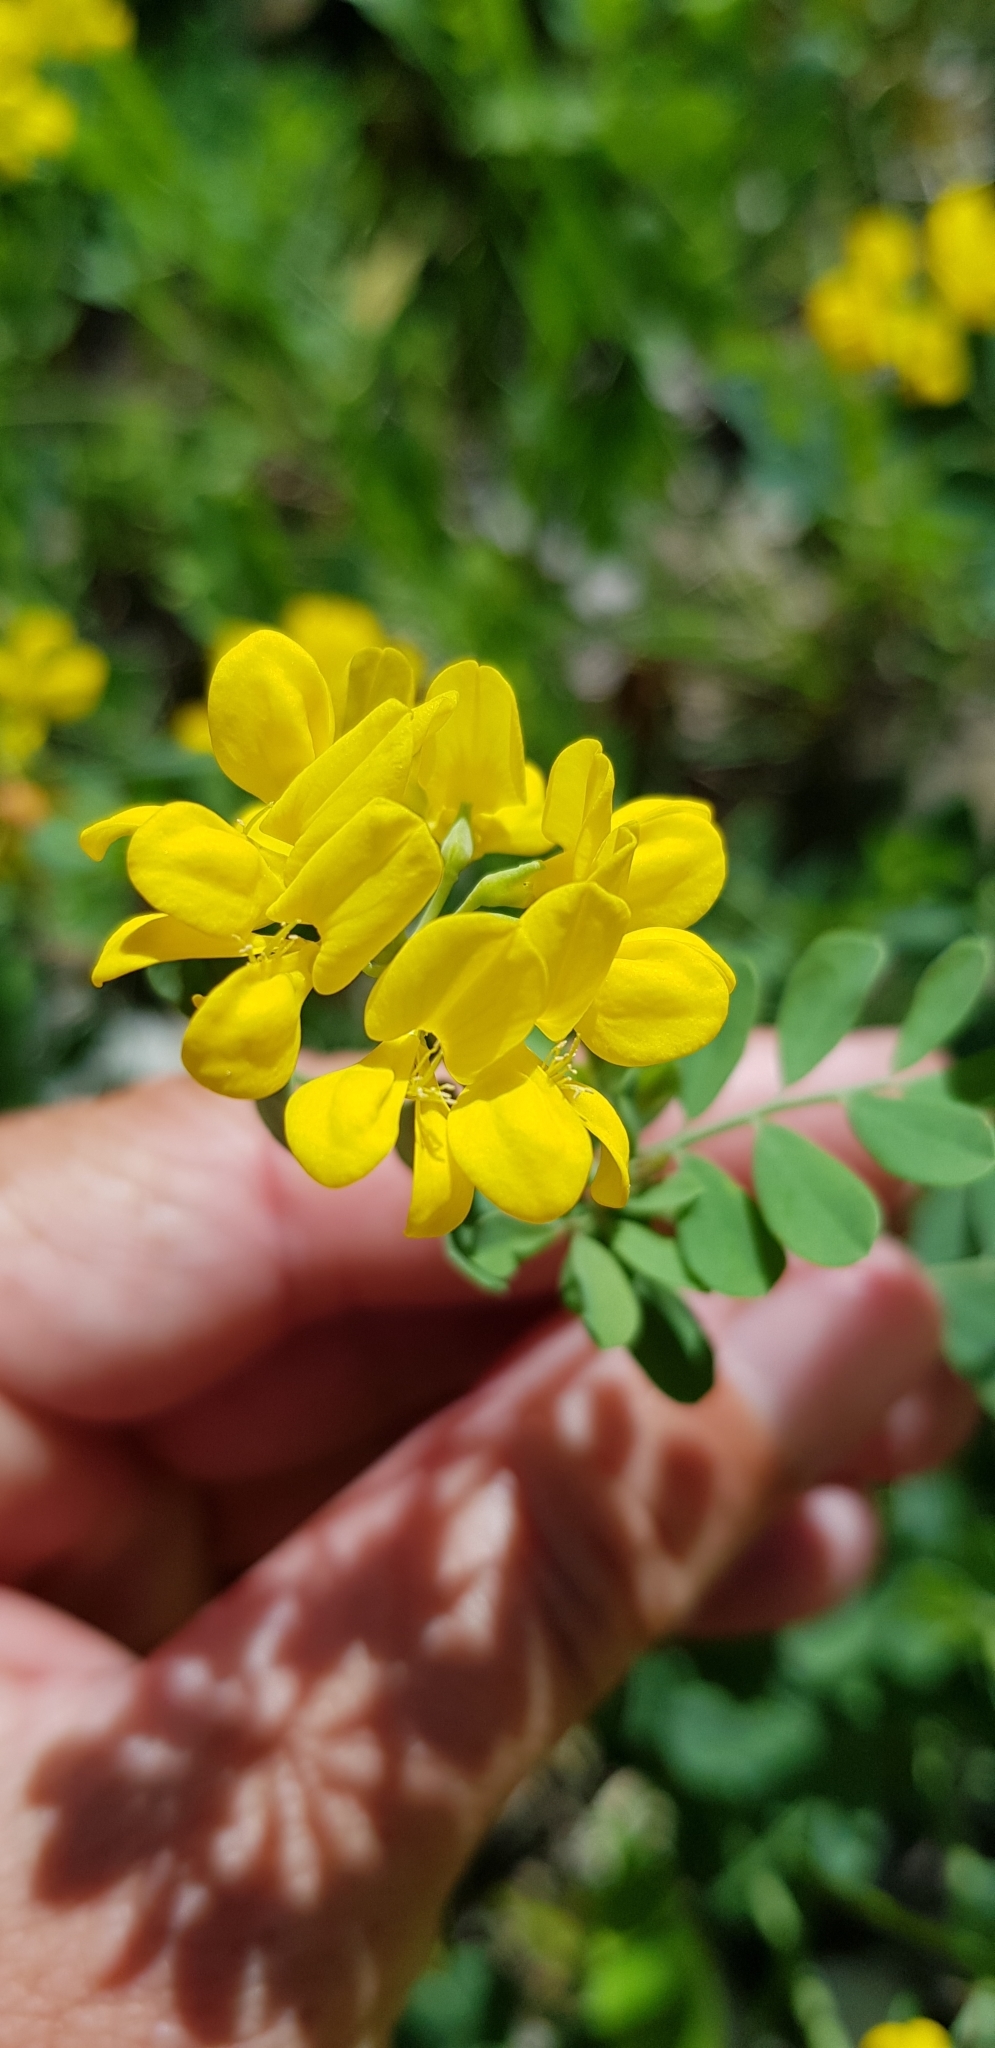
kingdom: Plantae
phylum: Tracheophyta
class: Magnoliopsida
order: Fabales
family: Fabaceae
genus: Coronilla
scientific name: Coronilla coronata
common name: Scorpion-vetch
